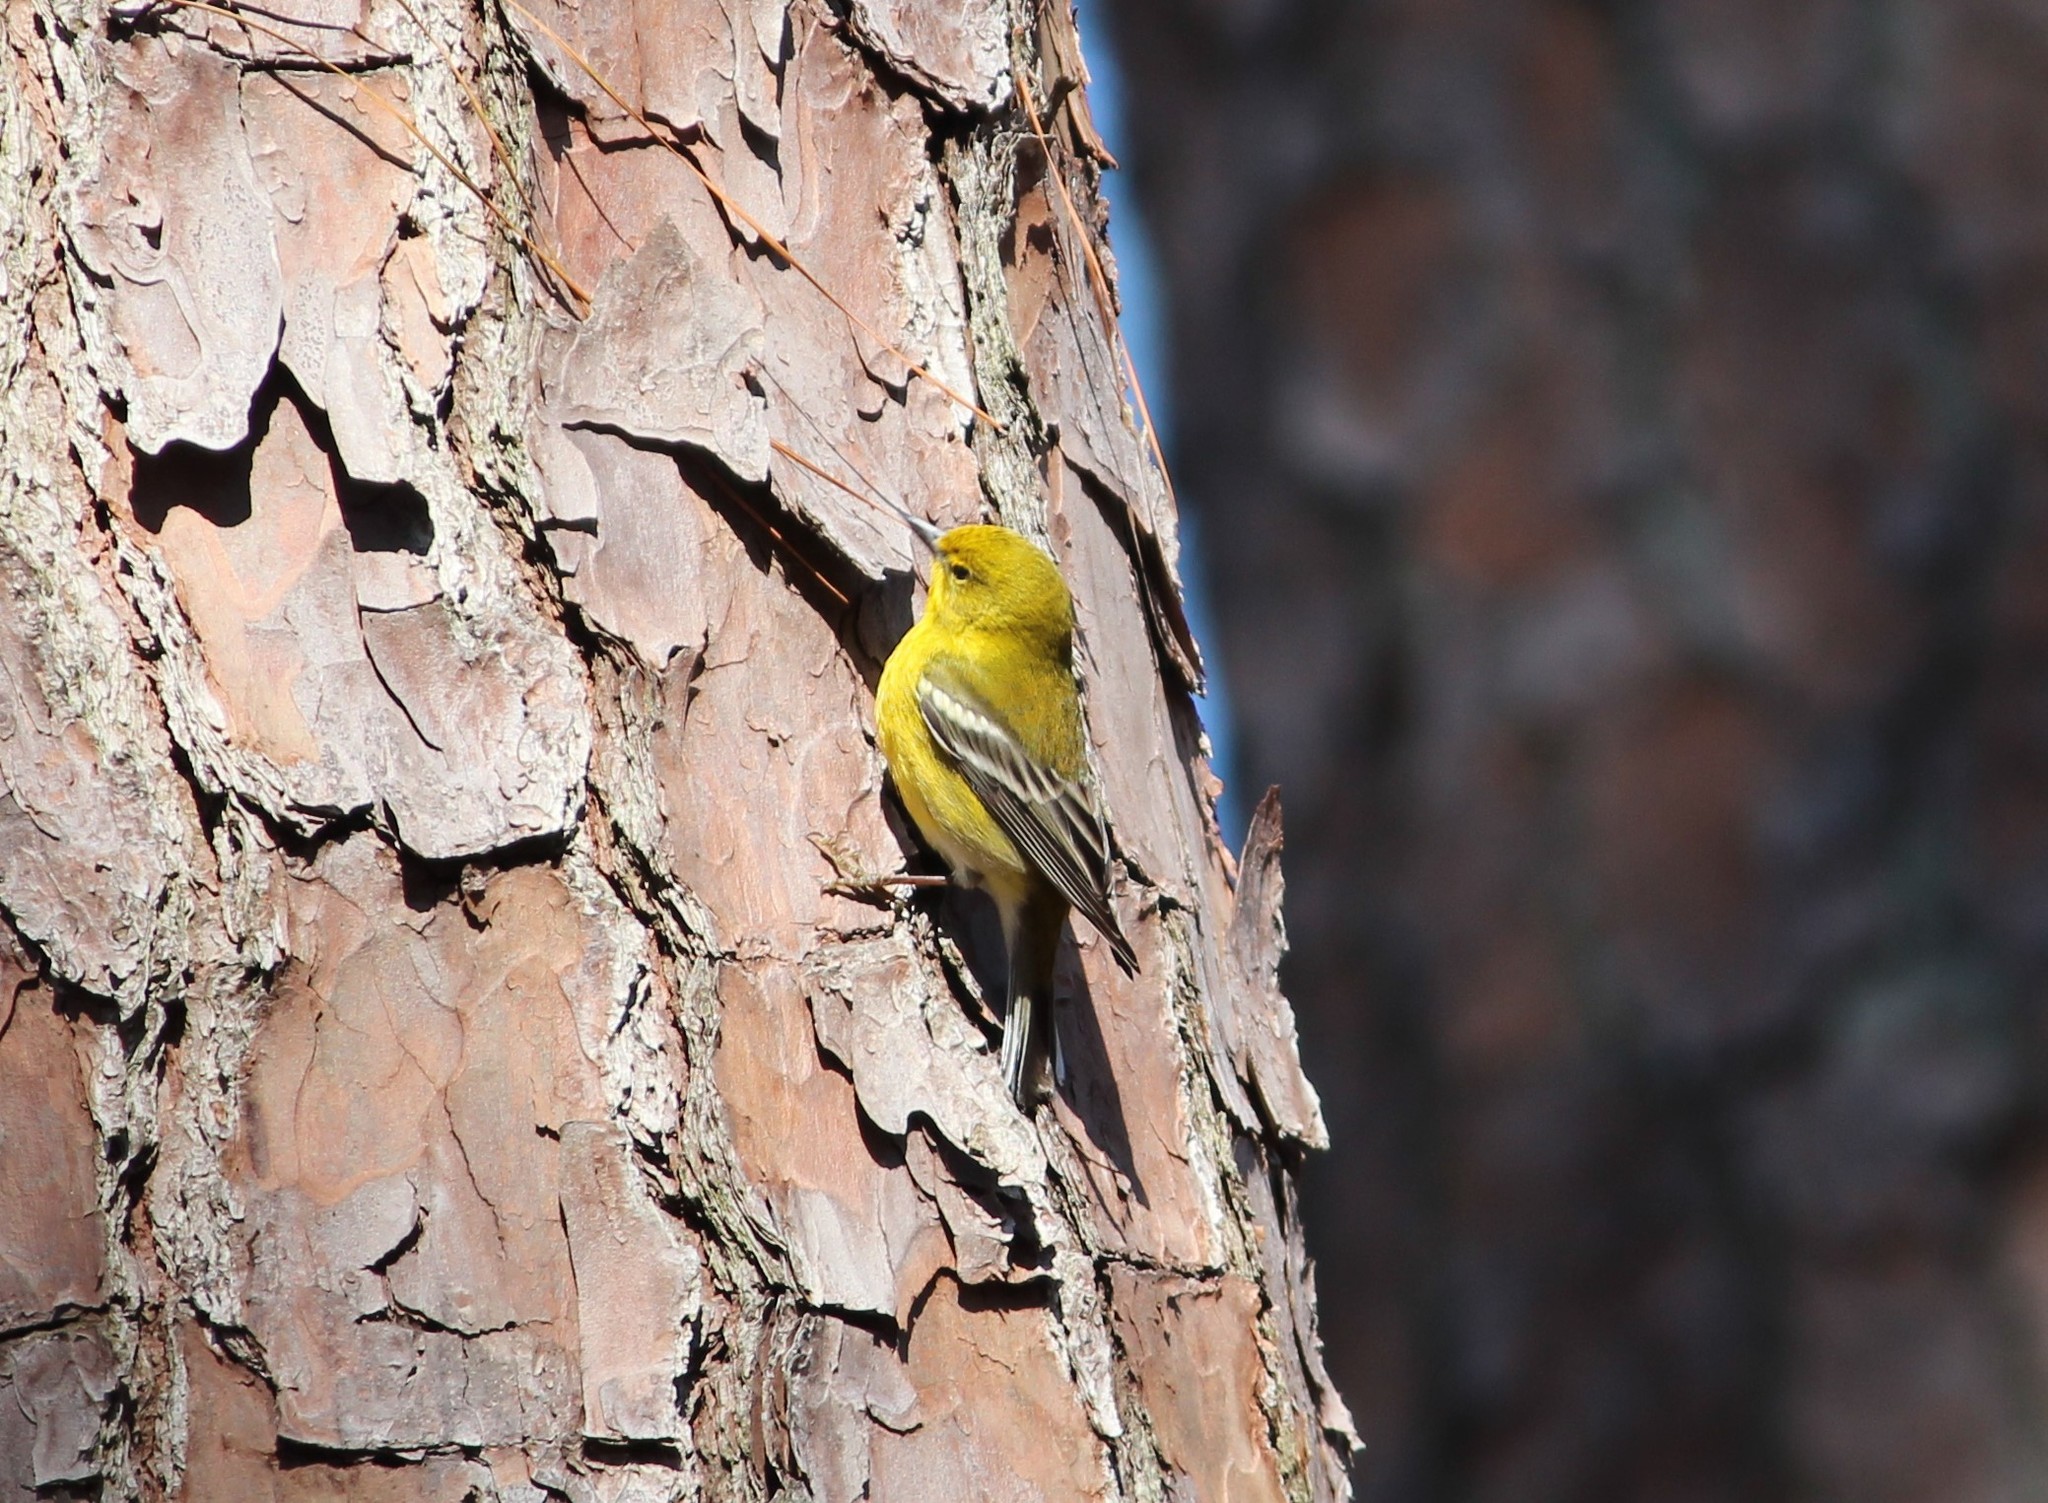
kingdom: Animalia
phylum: Chordata
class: Aves
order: Passeriformes
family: Parulidae
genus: Setophaga
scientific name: Setophaga pinus
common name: Pine warbler
